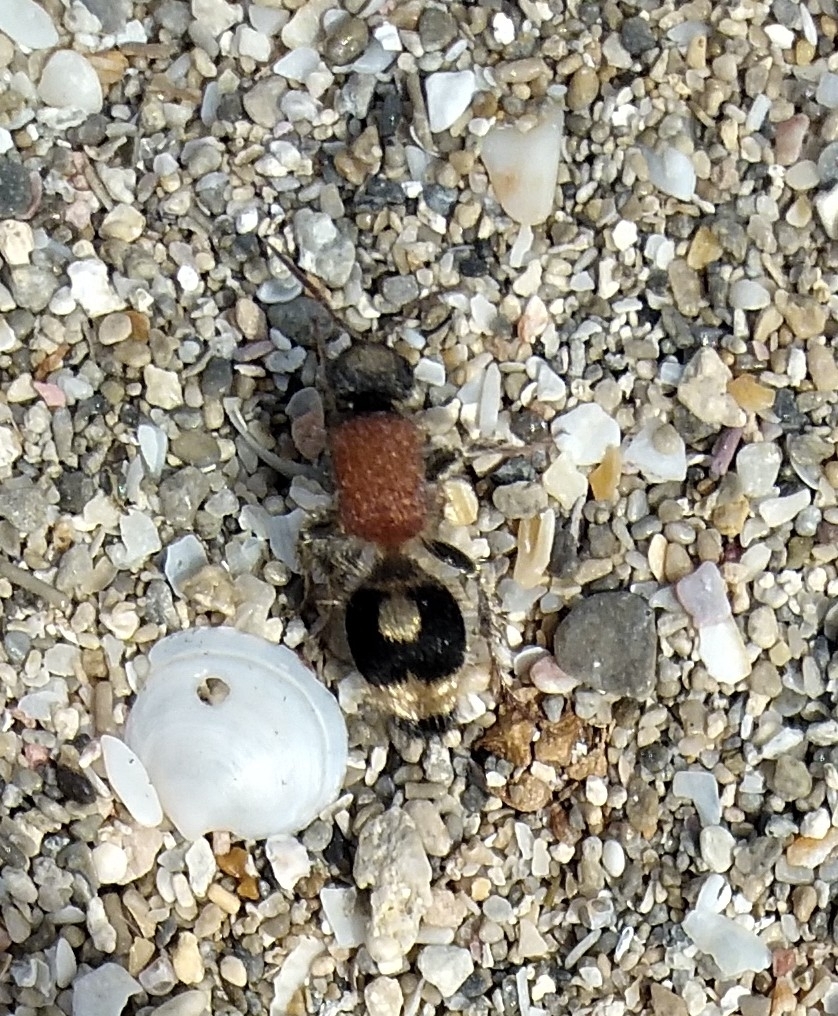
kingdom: Animalia
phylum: Arthropoda
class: Insecta
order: Hymenoptera
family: Mutillidae
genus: Nemka
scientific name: Nemka viduata
